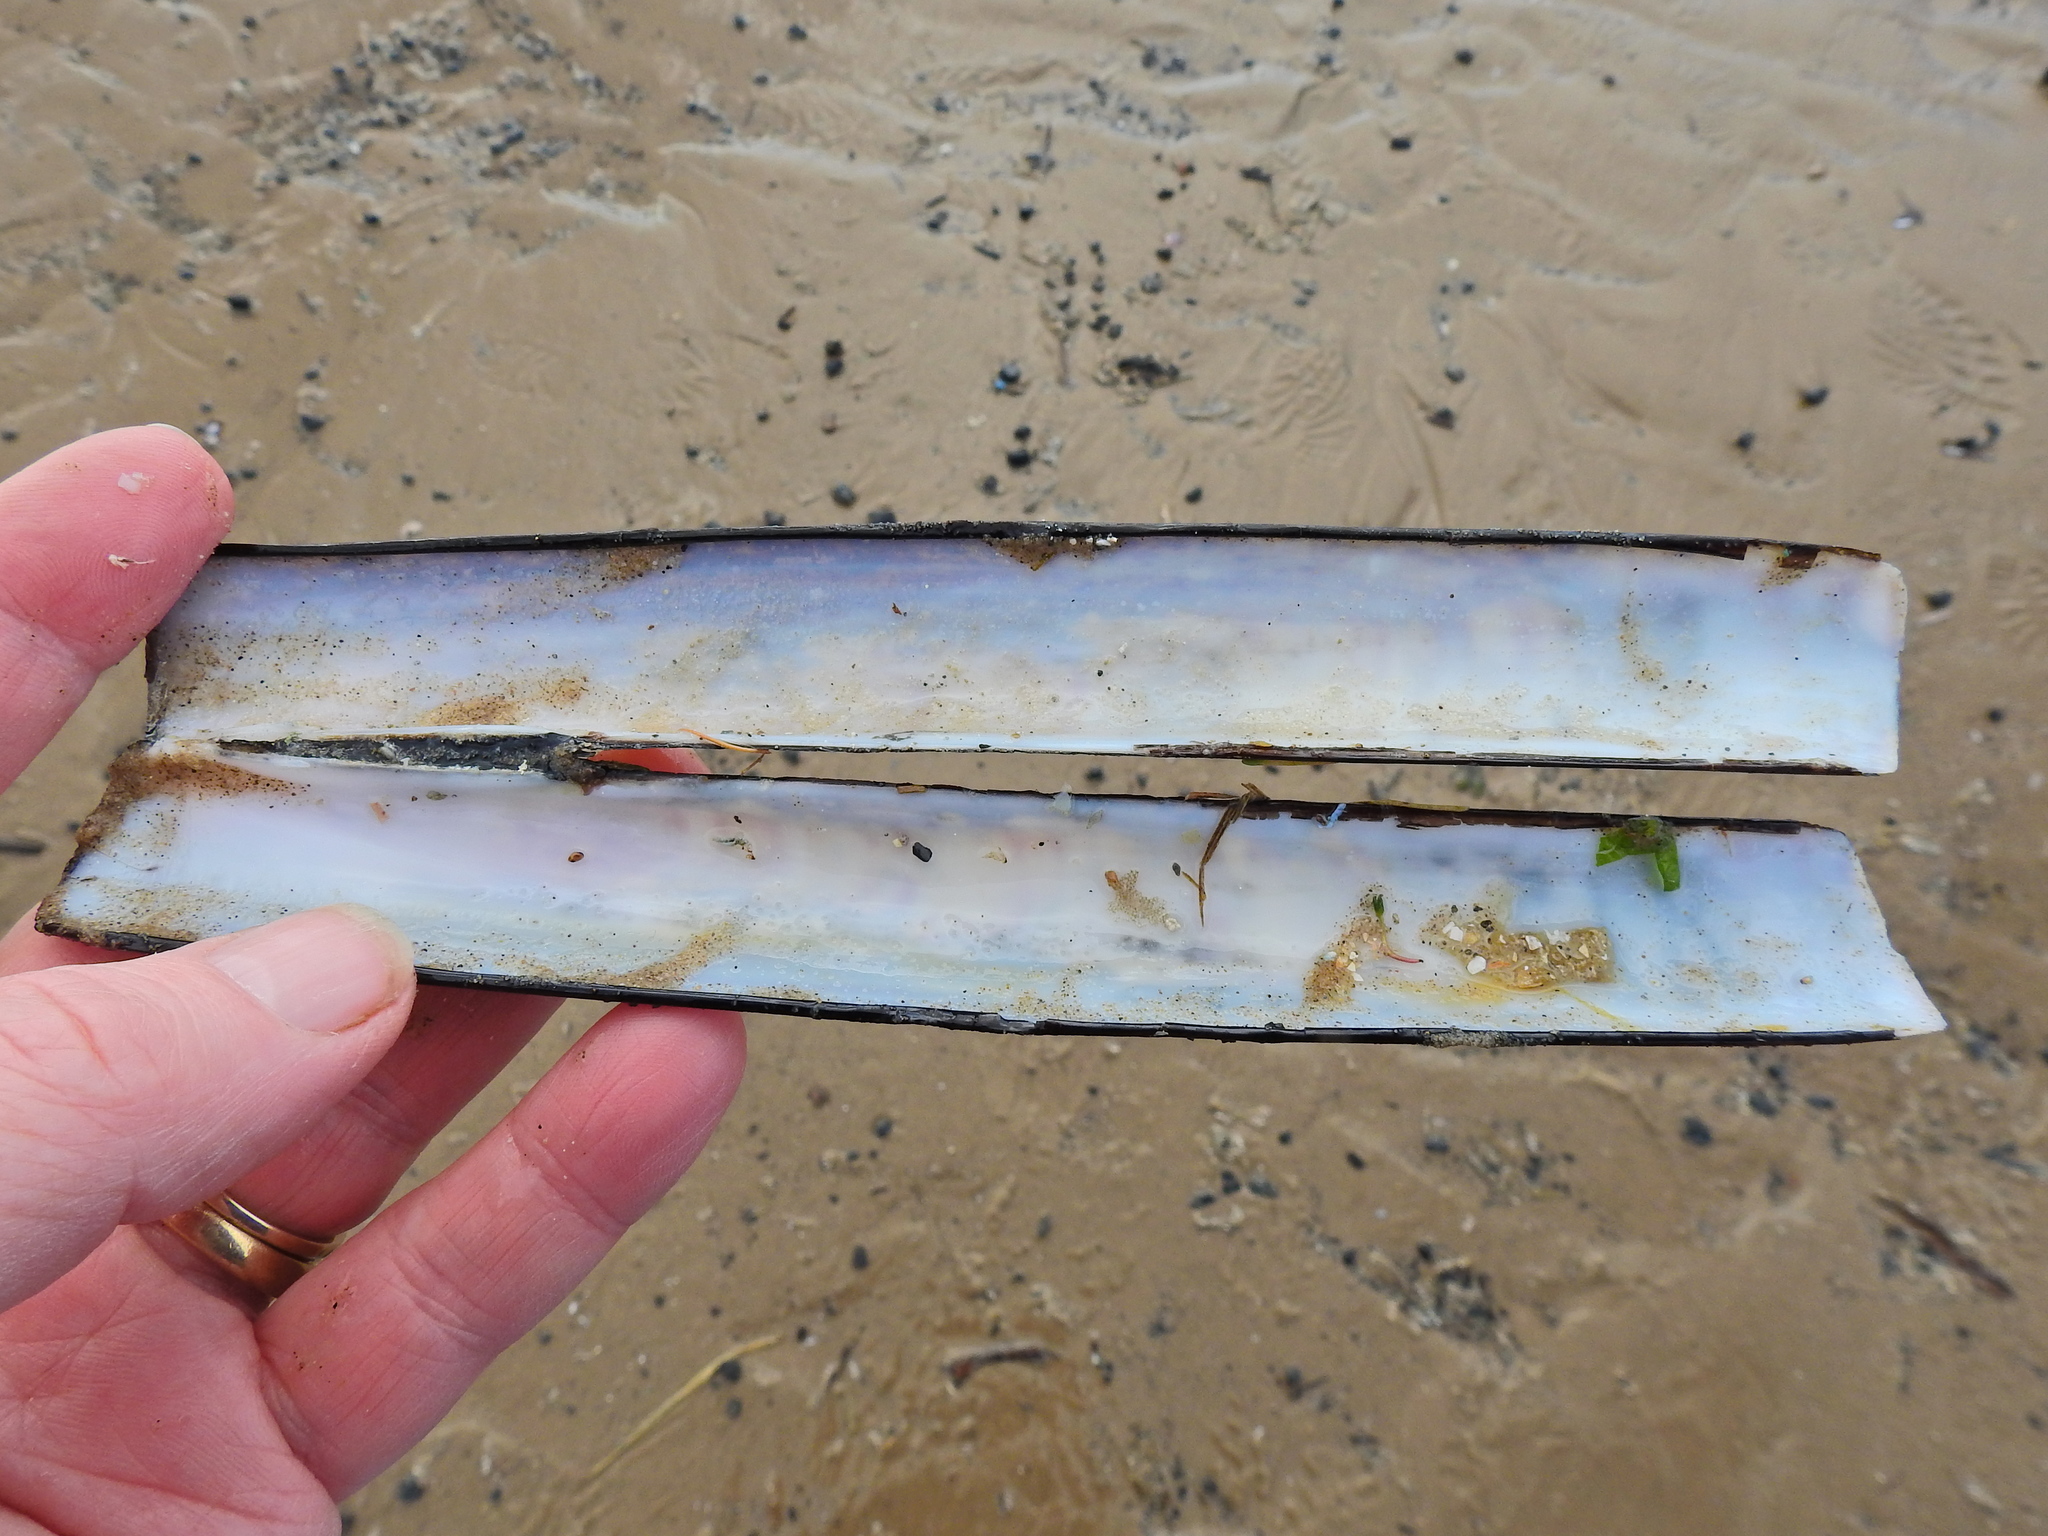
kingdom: Animalia
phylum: Mollusca
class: Bivalvia
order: Adapedonta
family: Pharidae
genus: Ensis
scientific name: Ensis siliqua
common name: Pod razor shell
